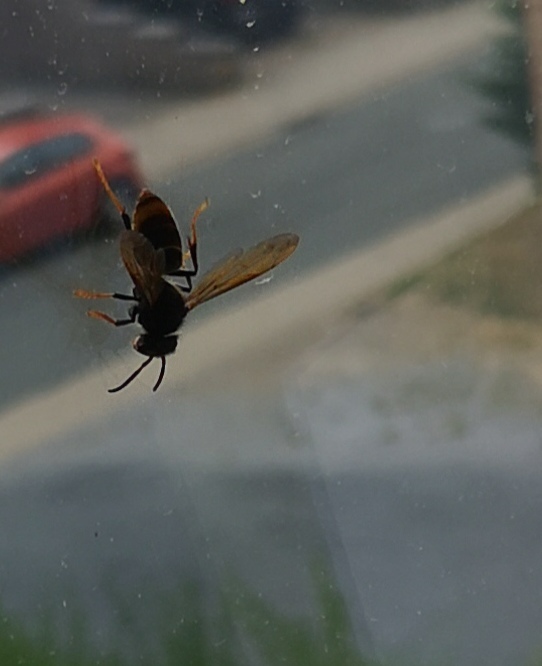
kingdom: Animalia
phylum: Arthropoda
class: Insecta
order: Hymenoptera
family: Vespidae
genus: Vespa
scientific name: Vespa velutina
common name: Asian hornet
